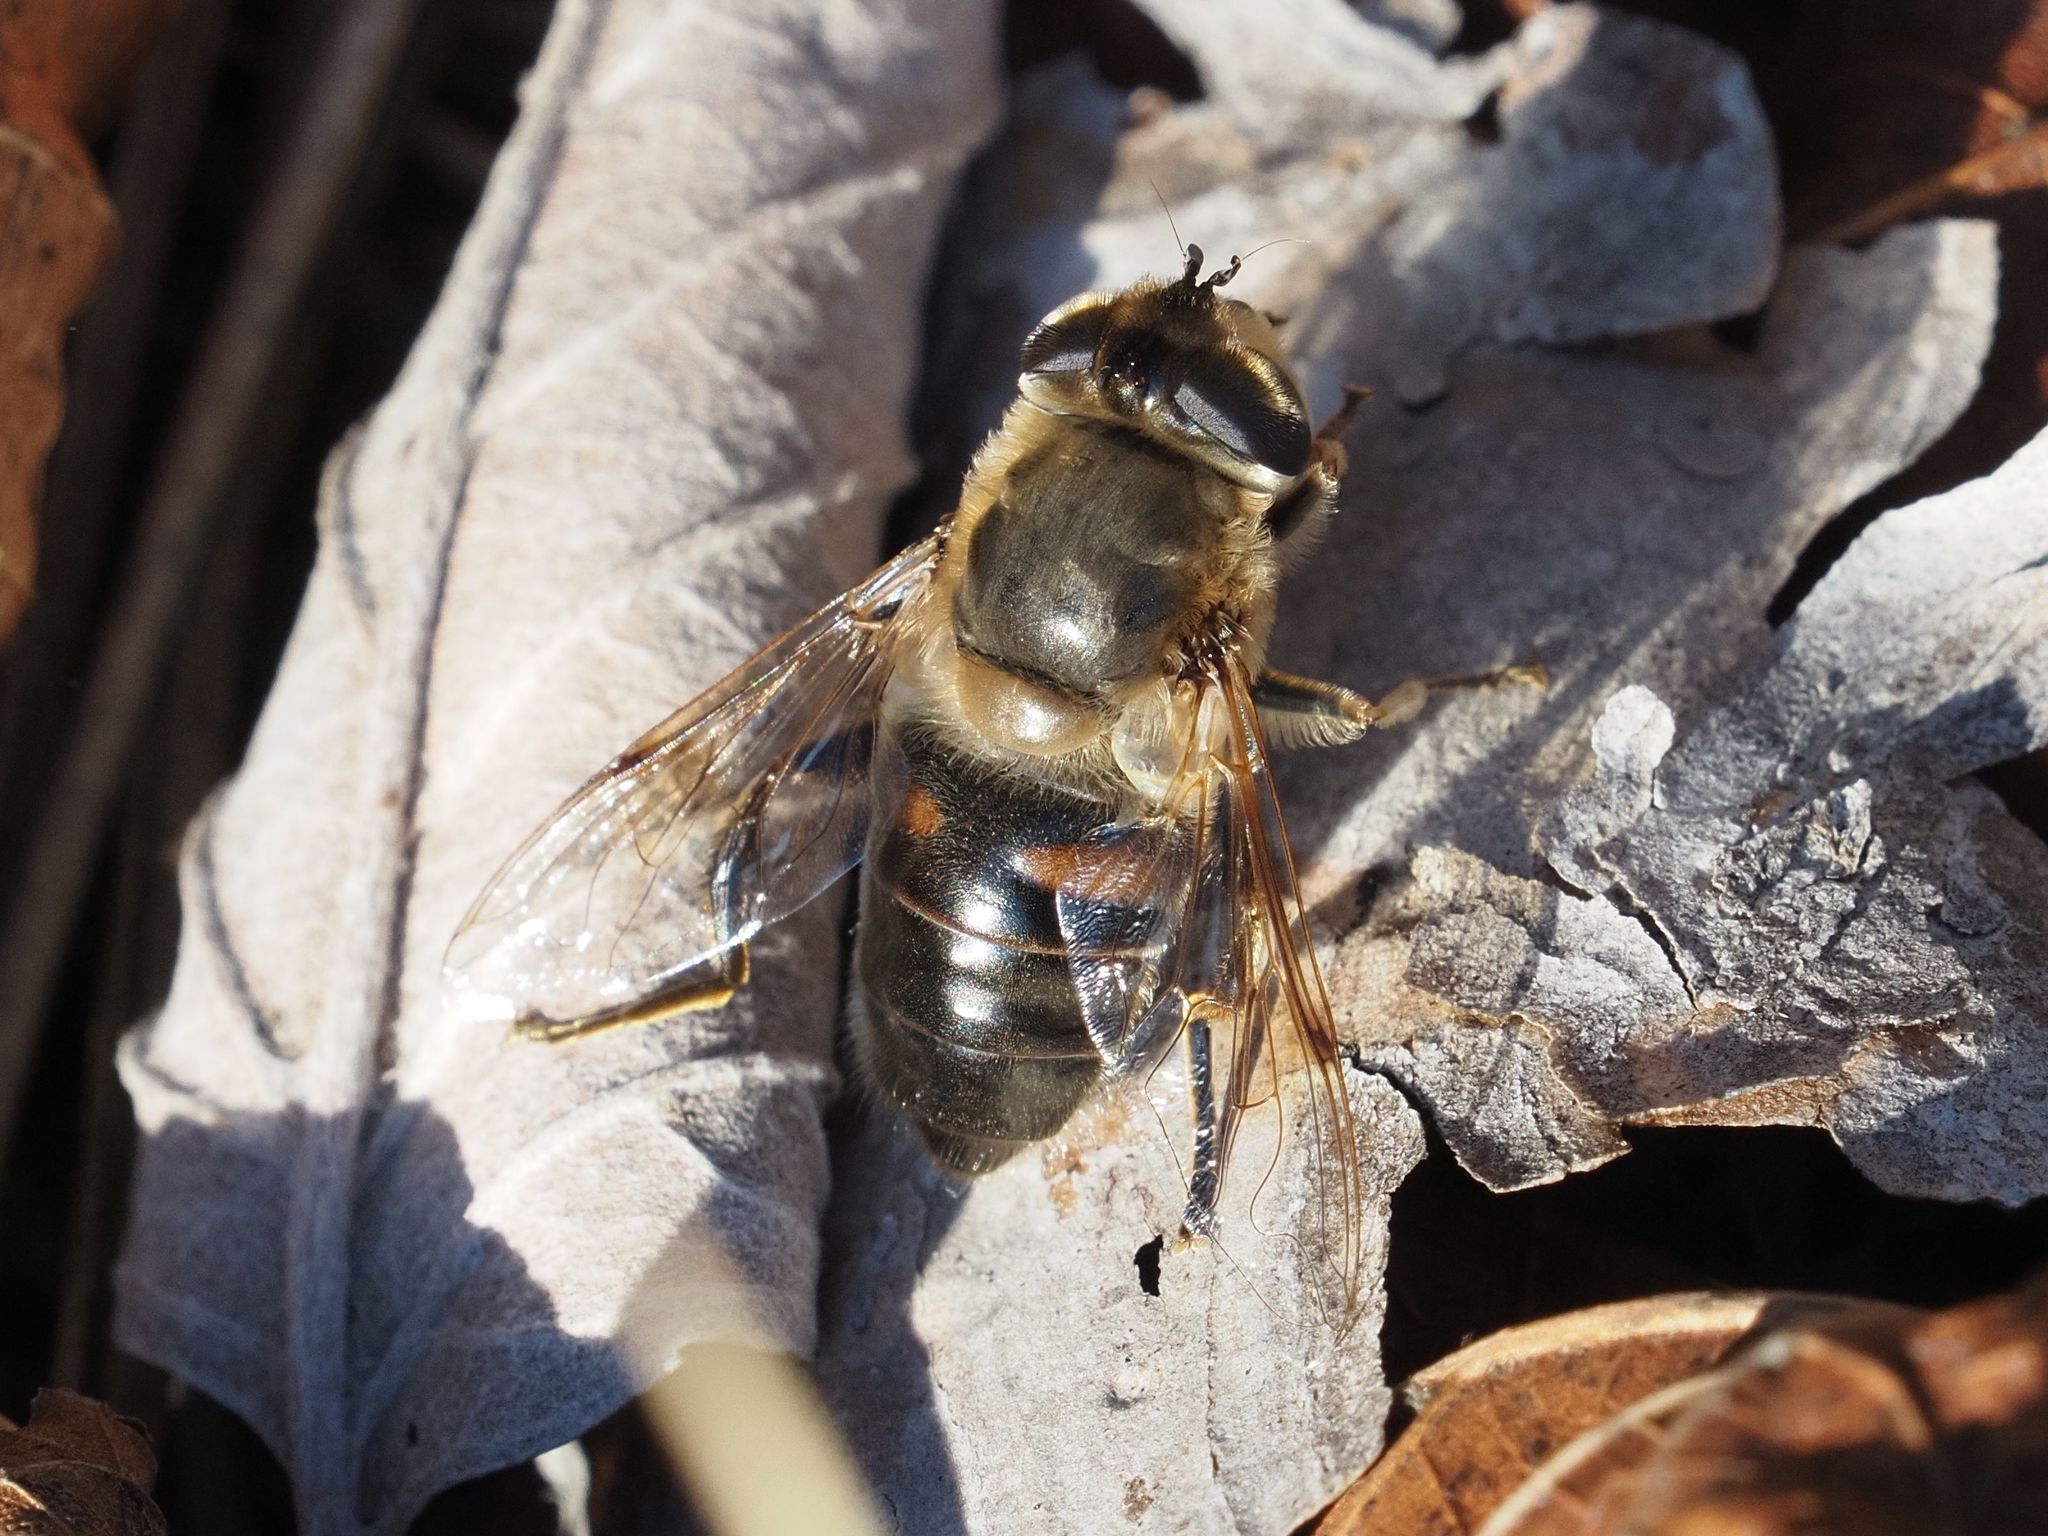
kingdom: Animalia
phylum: Arthropoda
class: Insecta
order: Diptera
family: Syrphidae
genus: Eristalis
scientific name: Eristalis tenax
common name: Drone fly
